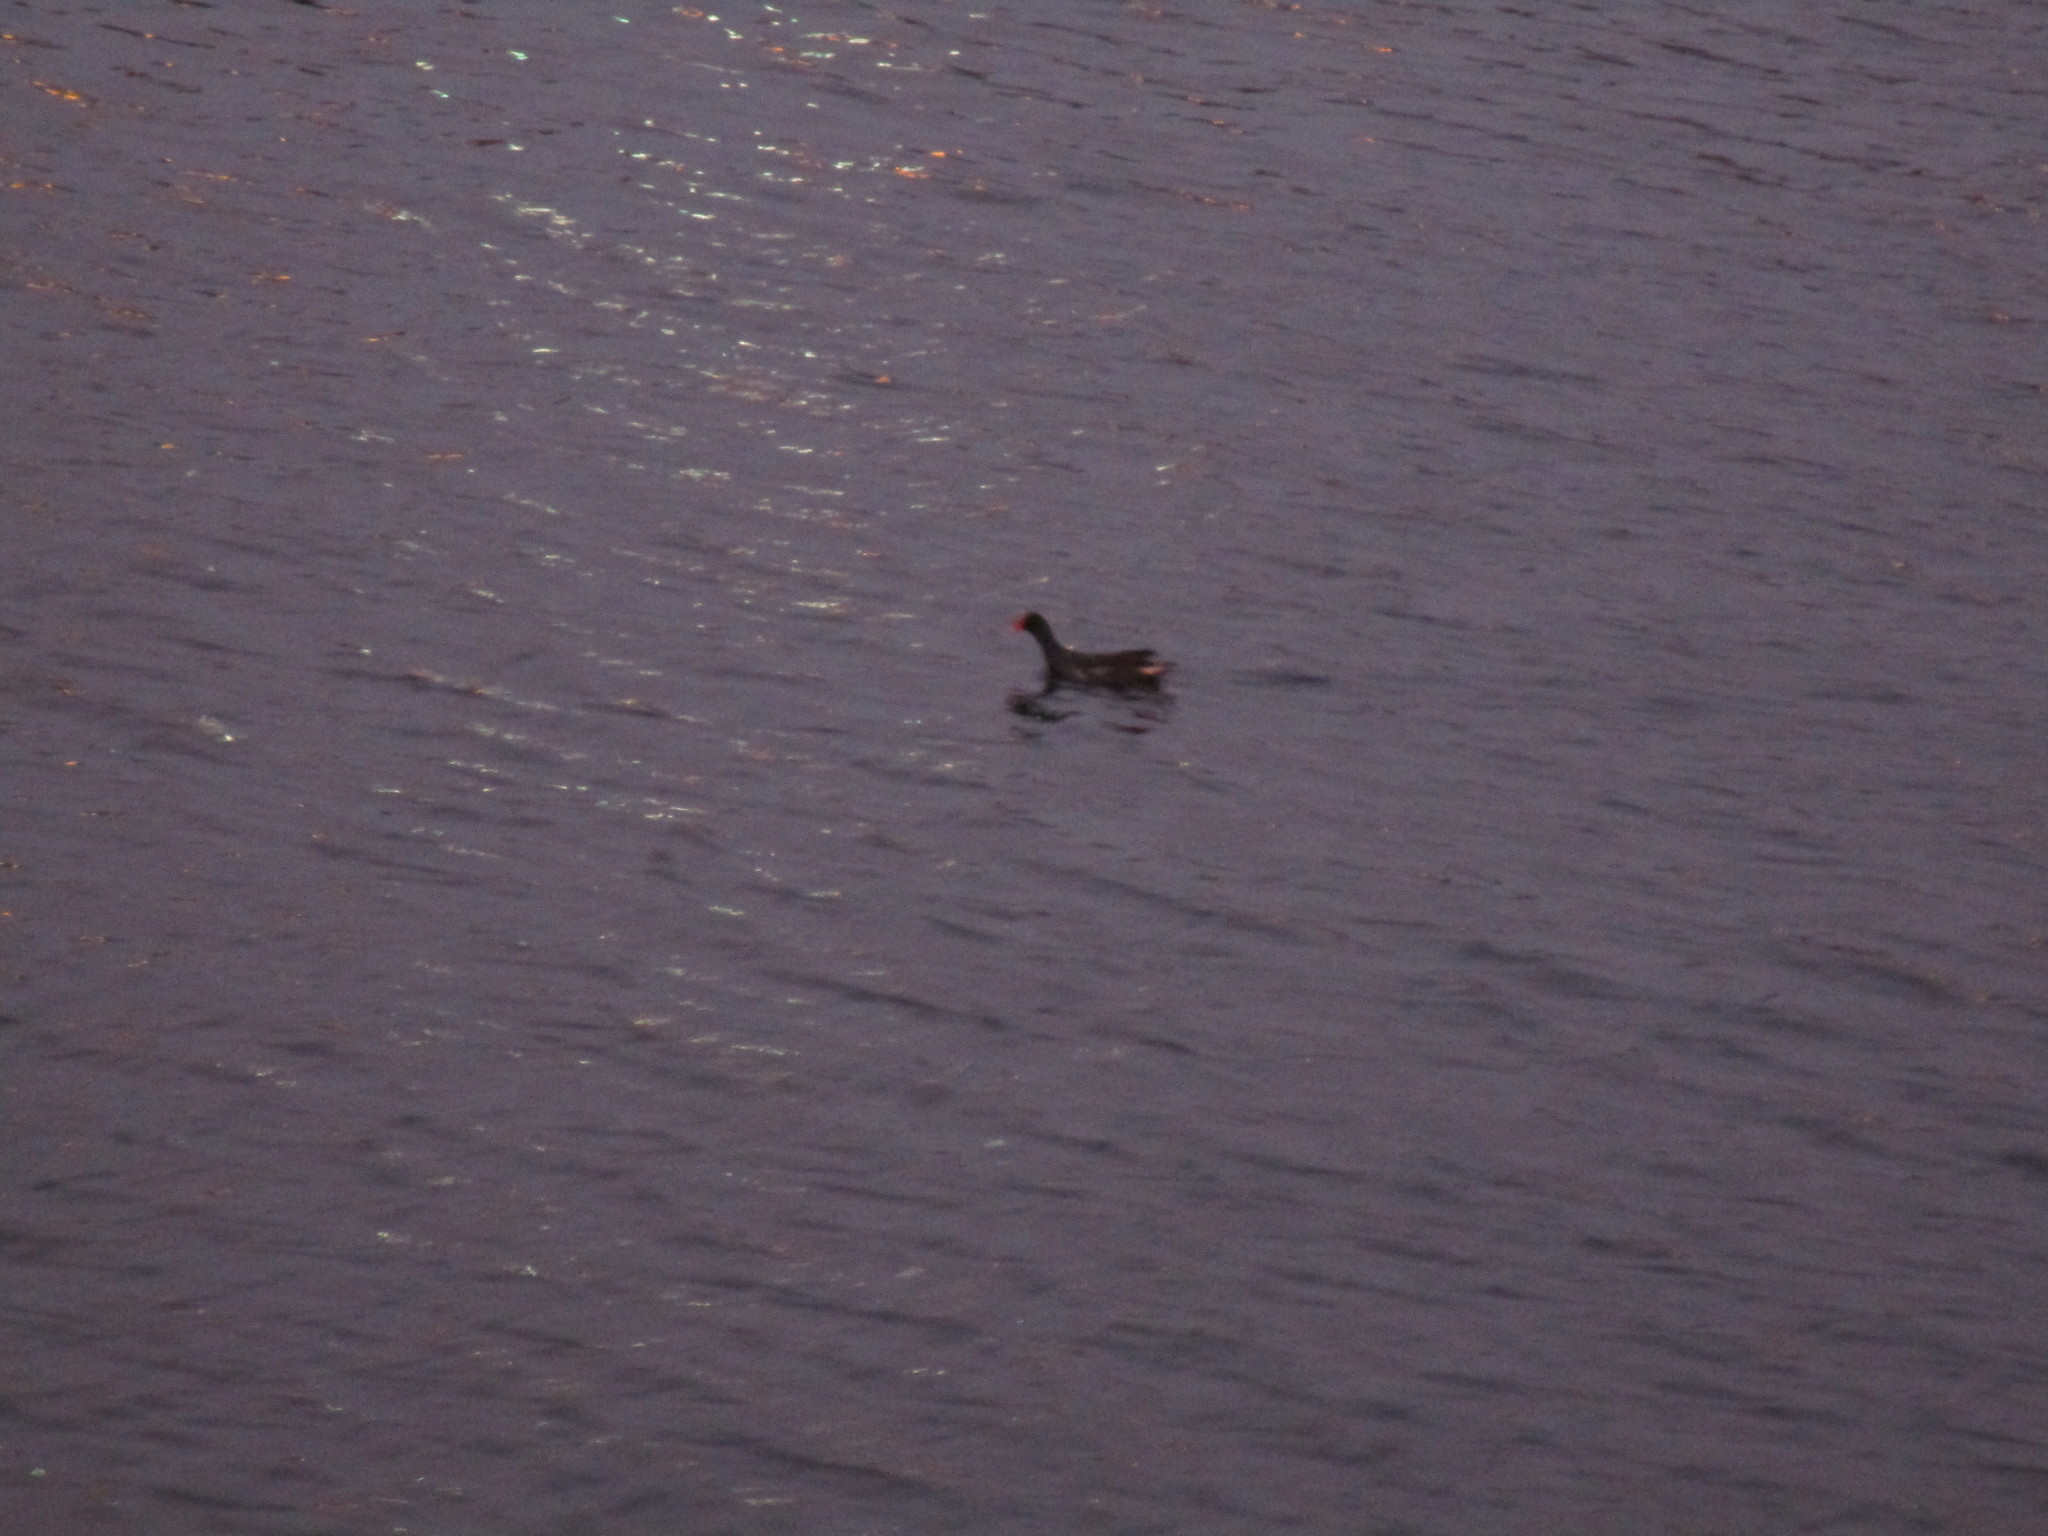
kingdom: Animalia
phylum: Chordata
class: Aves
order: Gruiformes
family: Rallidae
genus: Gallinula
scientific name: Gallinula chloropus
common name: Common moorhen
